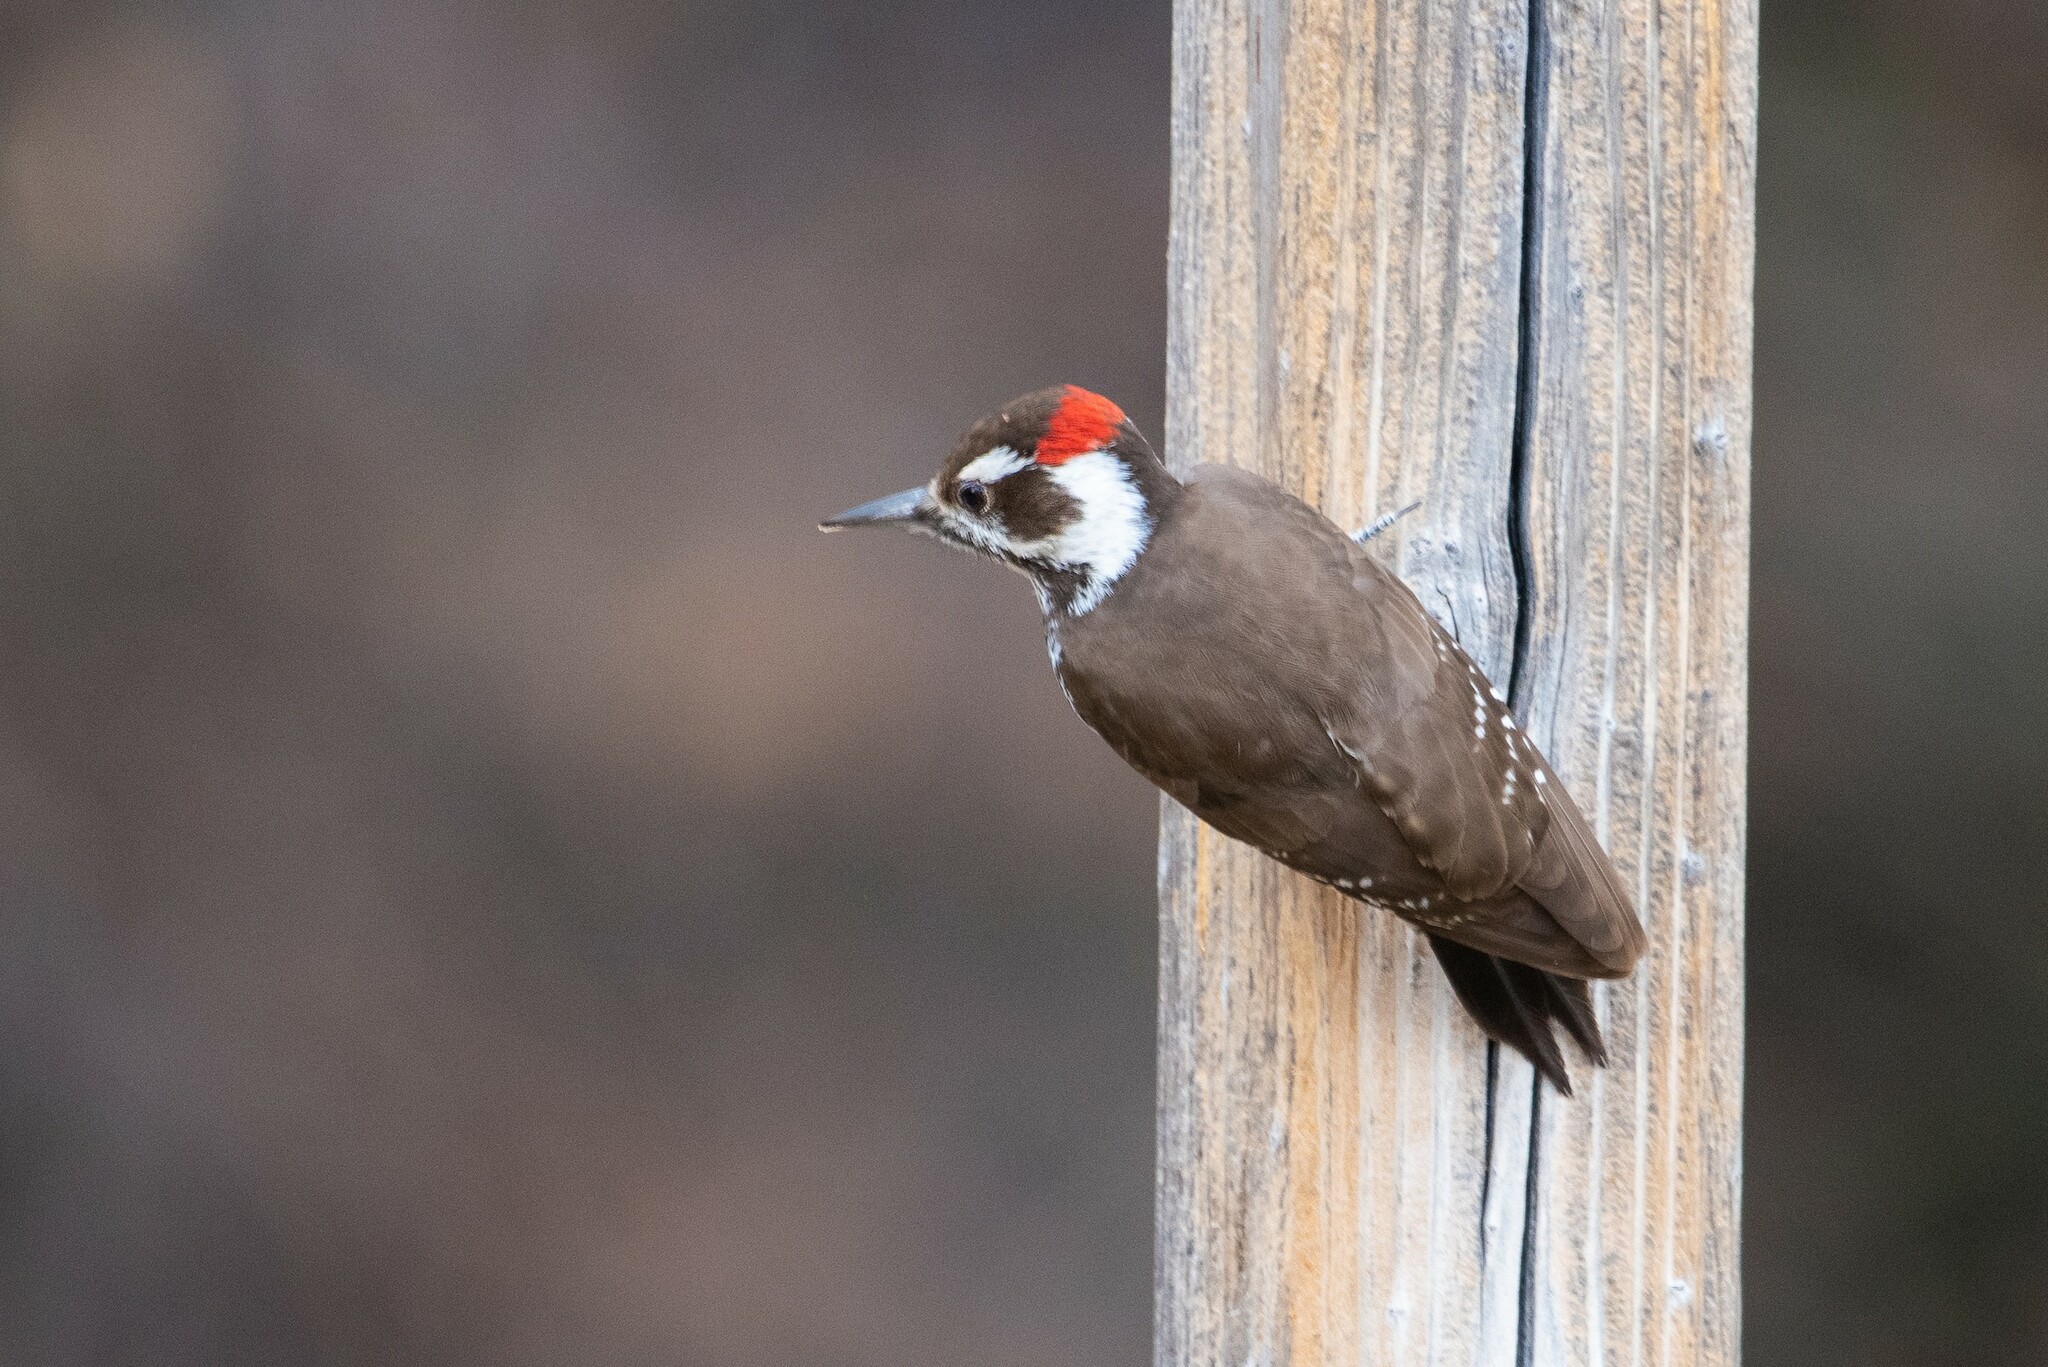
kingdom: Animalia
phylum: Chordata
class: Aves
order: Piciformes
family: Picidae
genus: Leuconotopicus
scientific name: Leuconotopicus arizonae
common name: Arizona woodpecker
